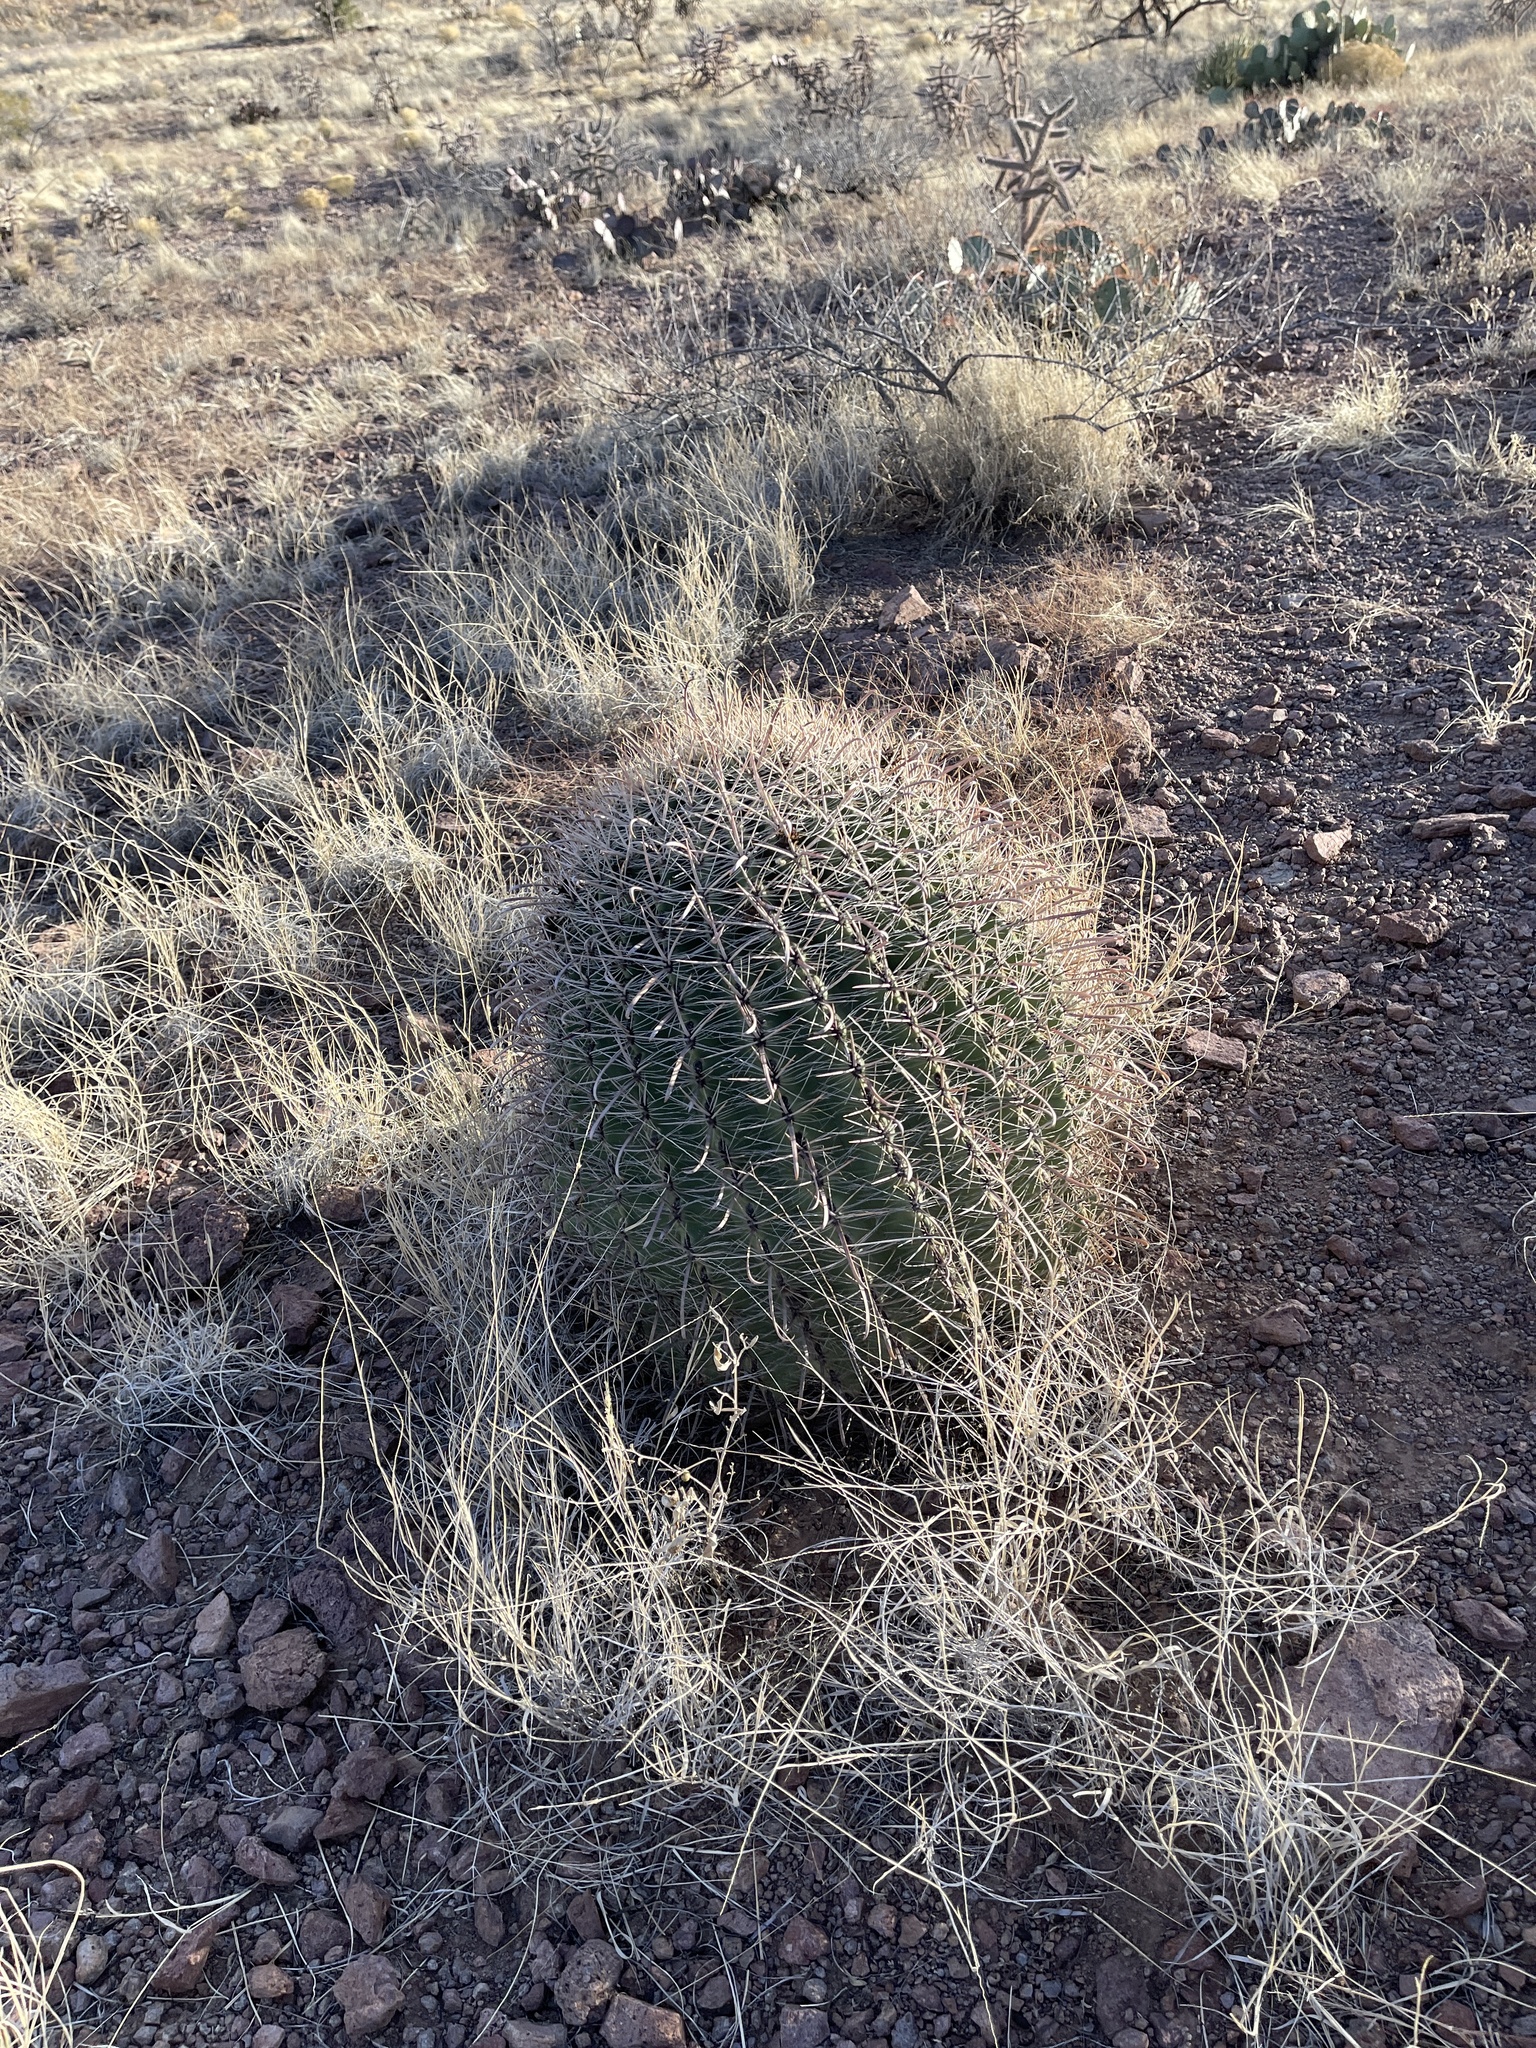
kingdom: Plantae
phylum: Tracheophyta
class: Magnoliopsida
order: Caryophyllales
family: Cactaceae
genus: Ferocactus
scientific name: Ferocactus wislizeni
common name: Candy barrel cactus
